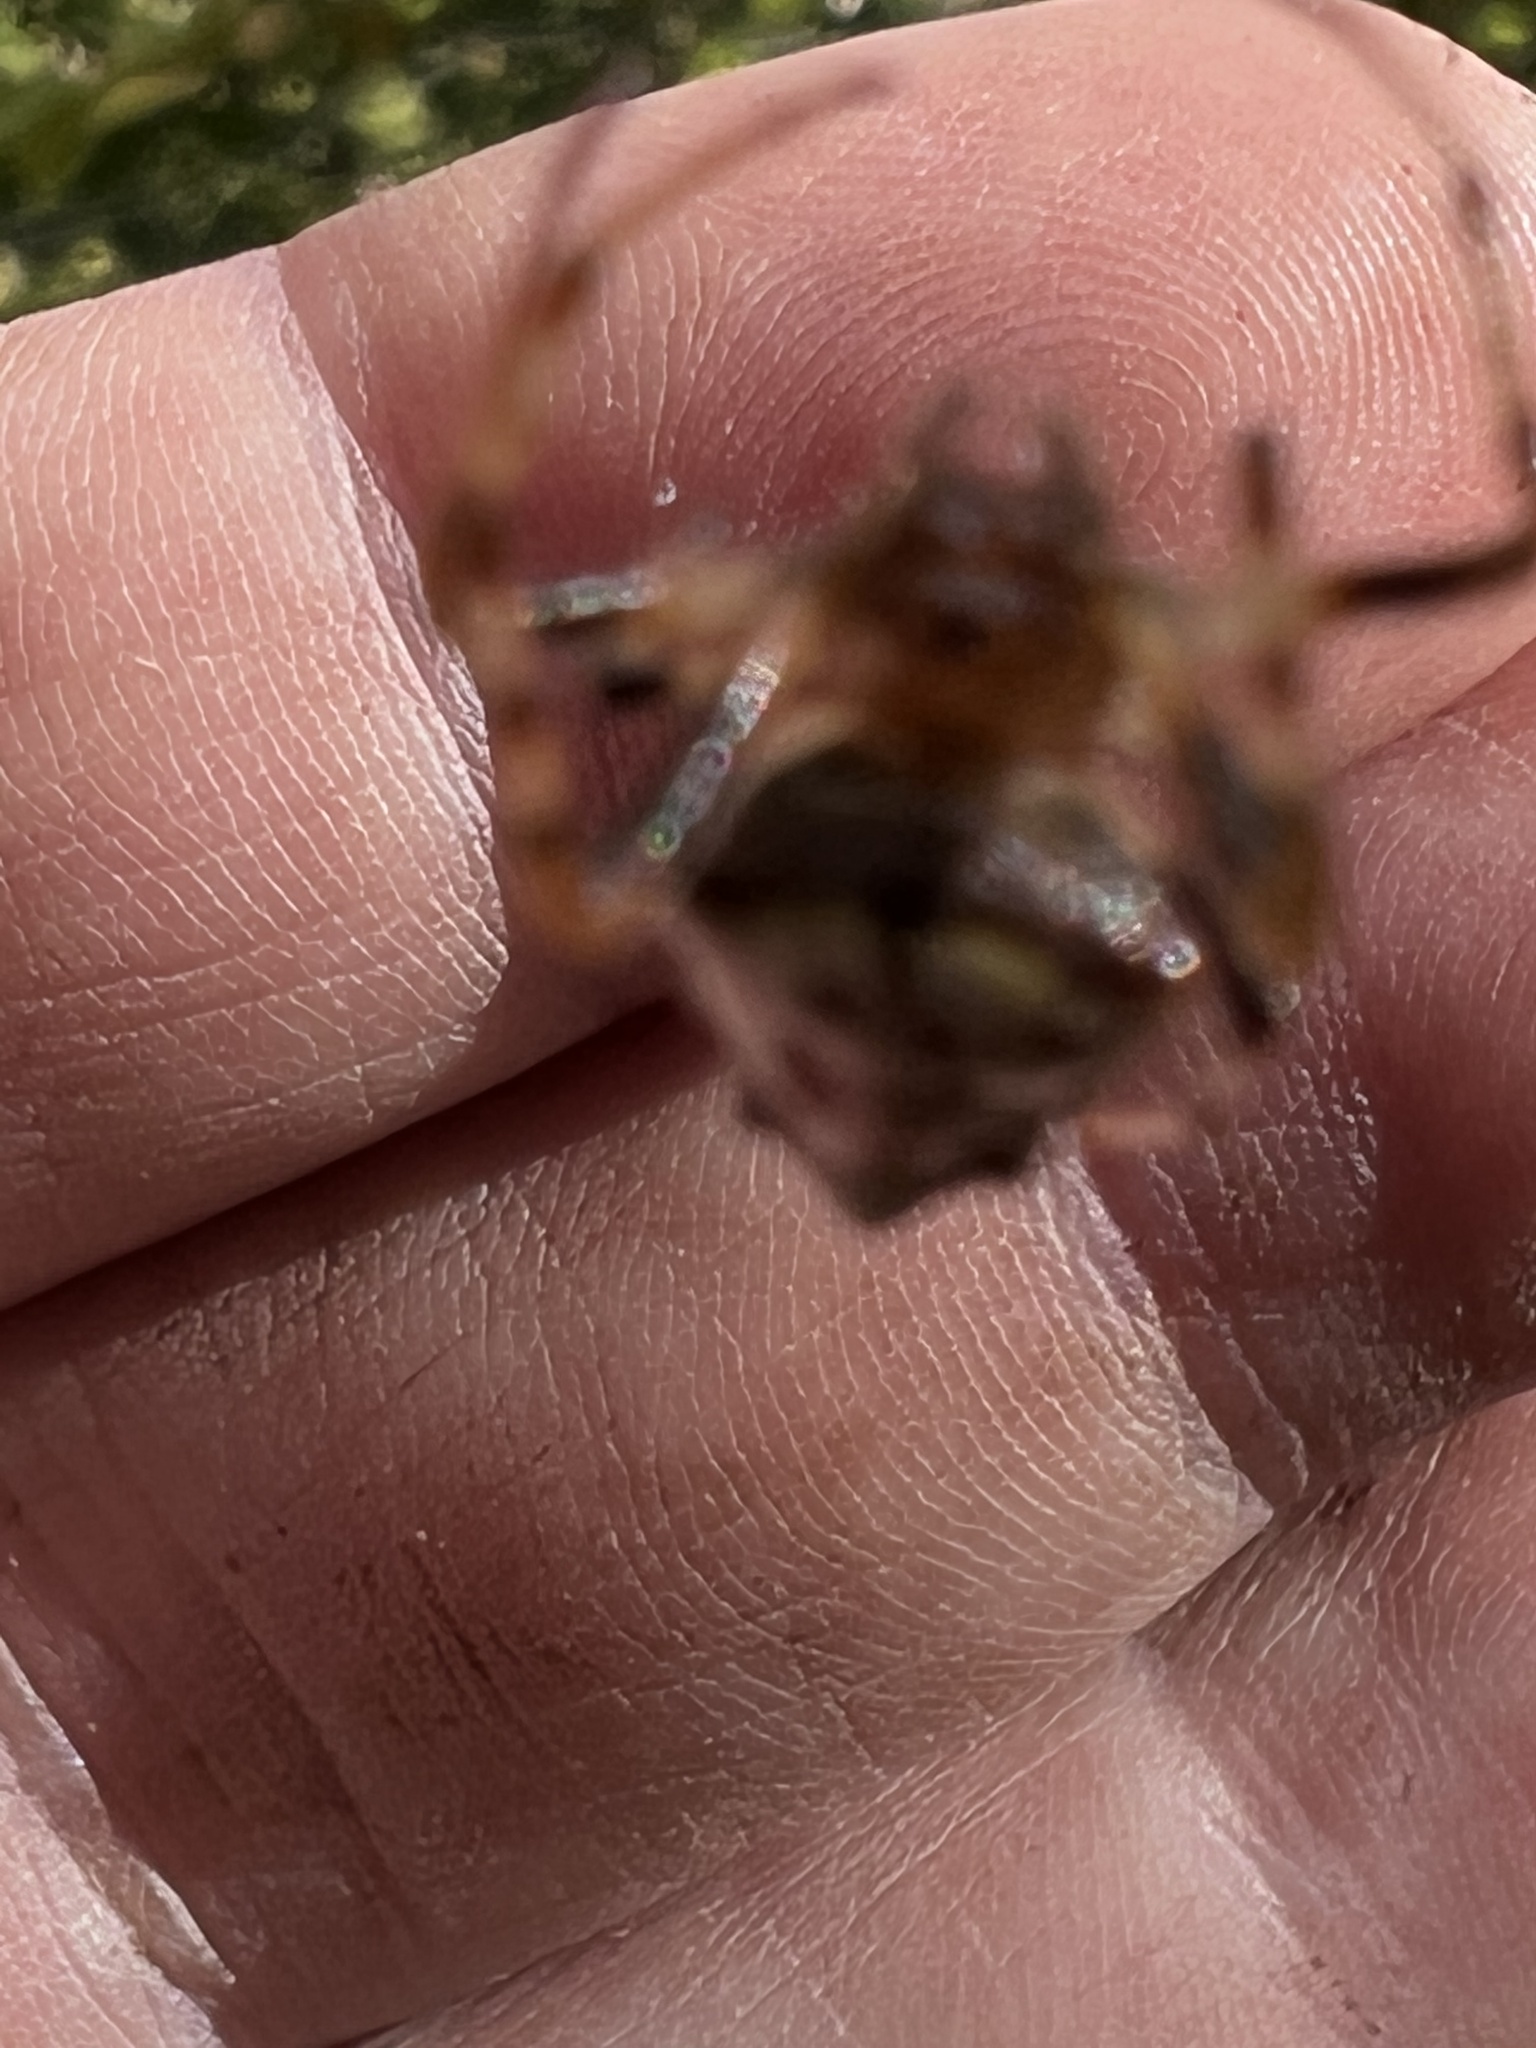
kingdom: Animalia
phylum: Arthropoda
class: Arachnida
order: Araneae
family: Araneidae
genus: Verrucosa
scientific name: Verrucosa arenata
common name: Orb weavers
